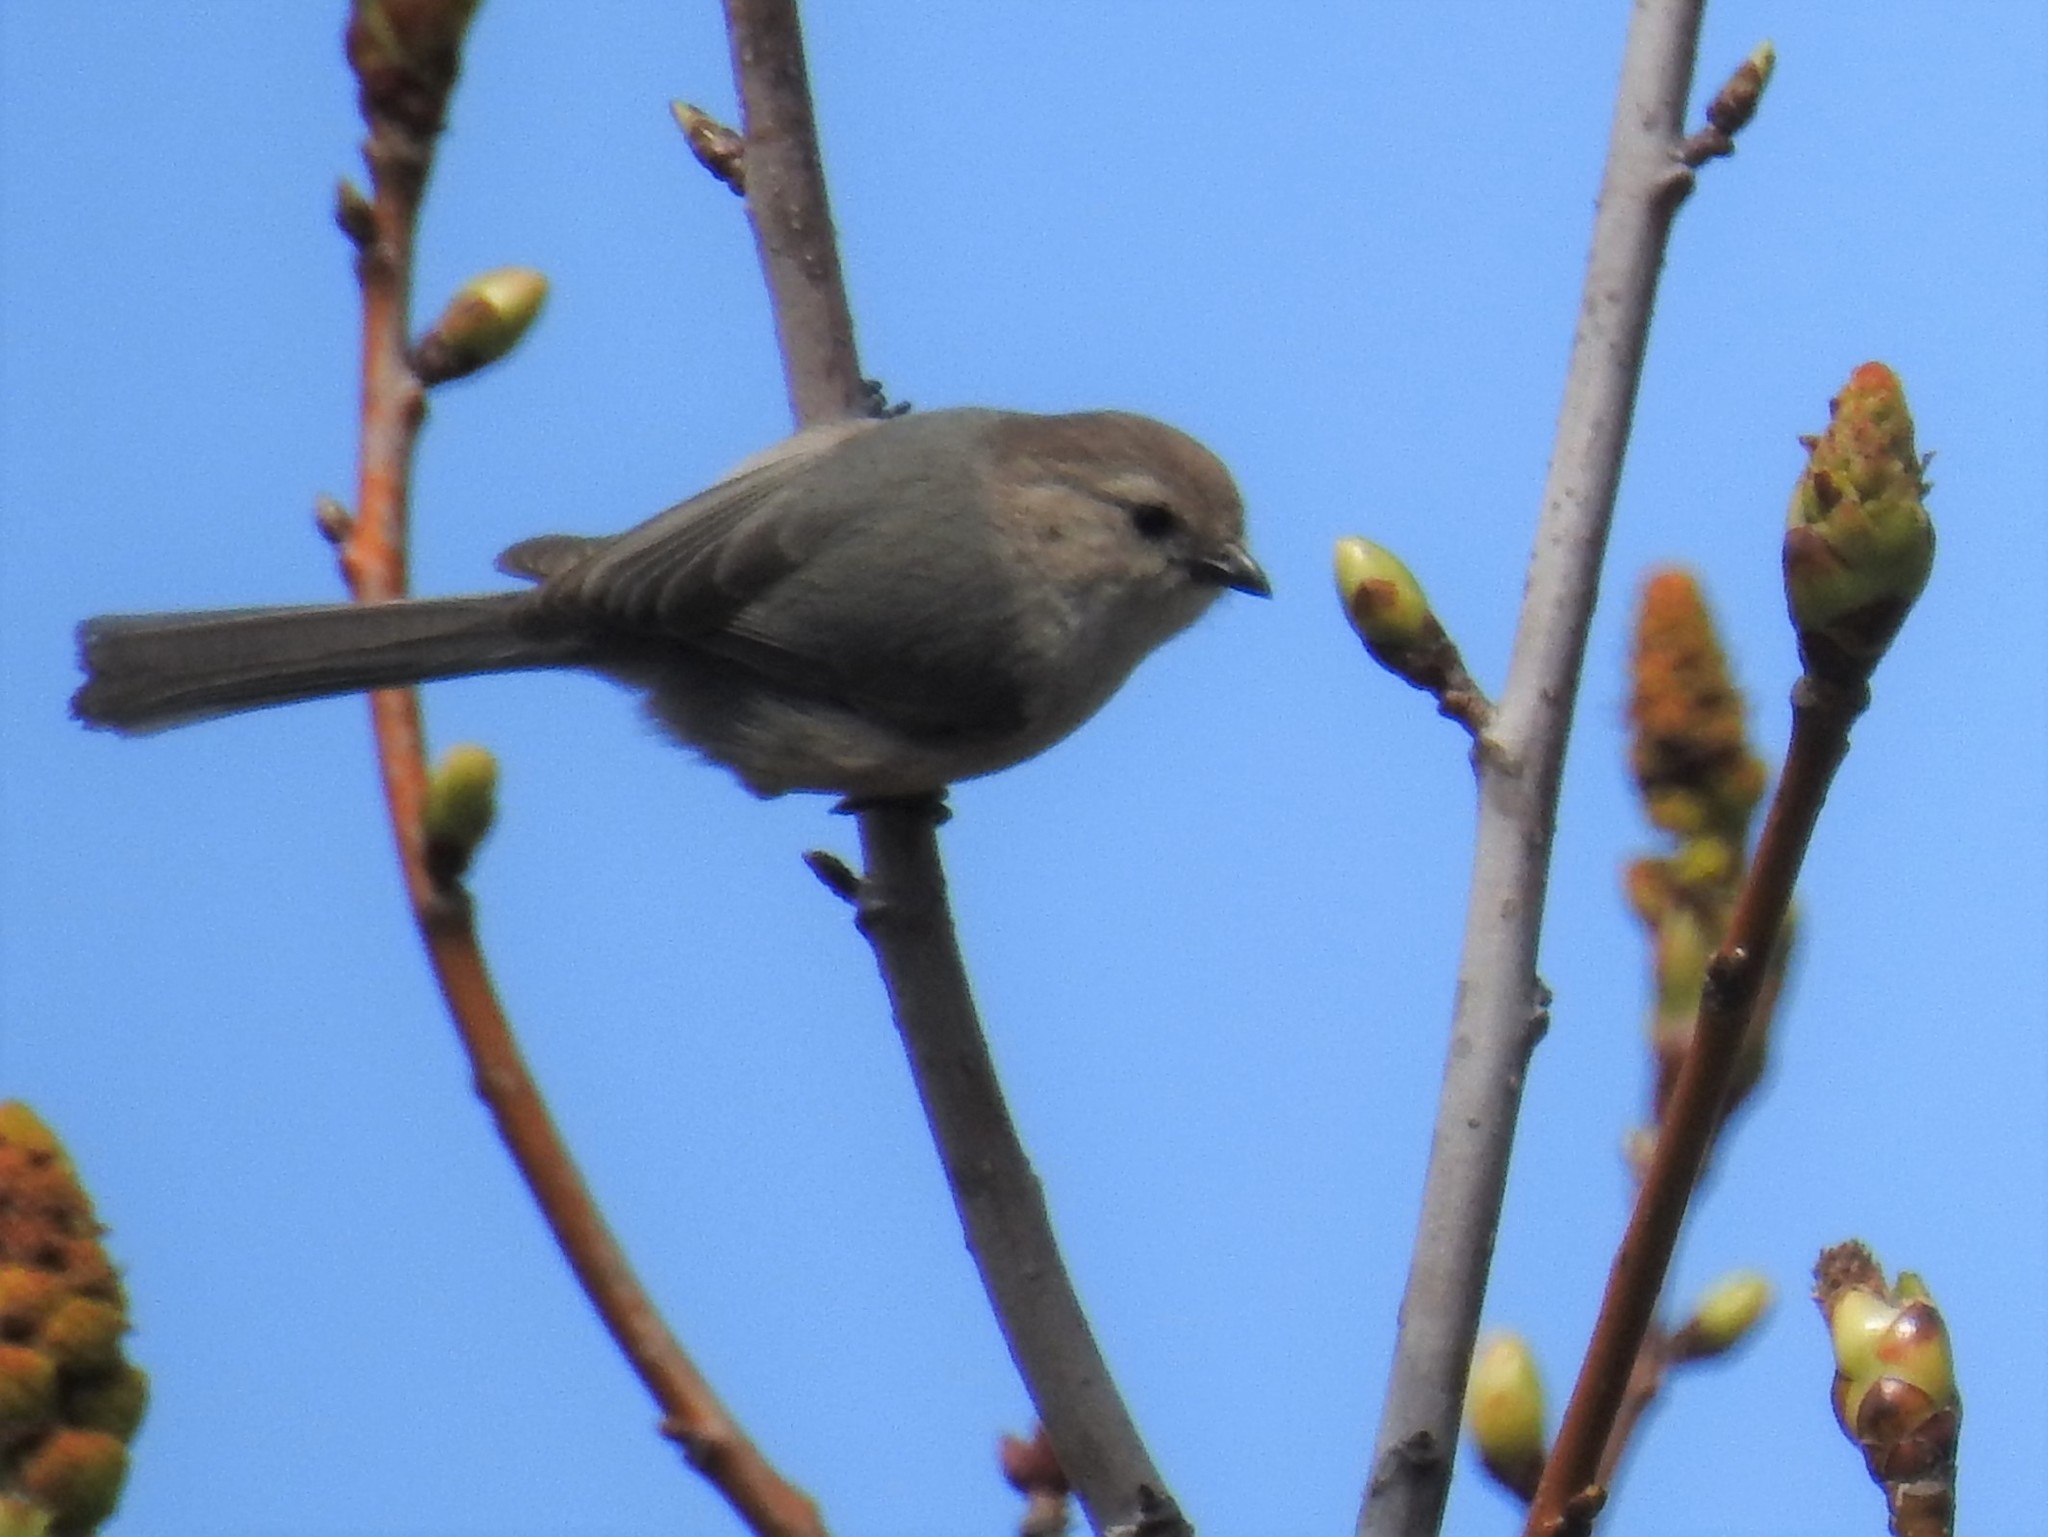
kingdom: Animalia
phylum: Chordata
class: Aves
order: Passeriformes
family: Aegithalidae
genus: Psaltriparus
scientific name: Psaltriparus minimus
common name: American bushtit
